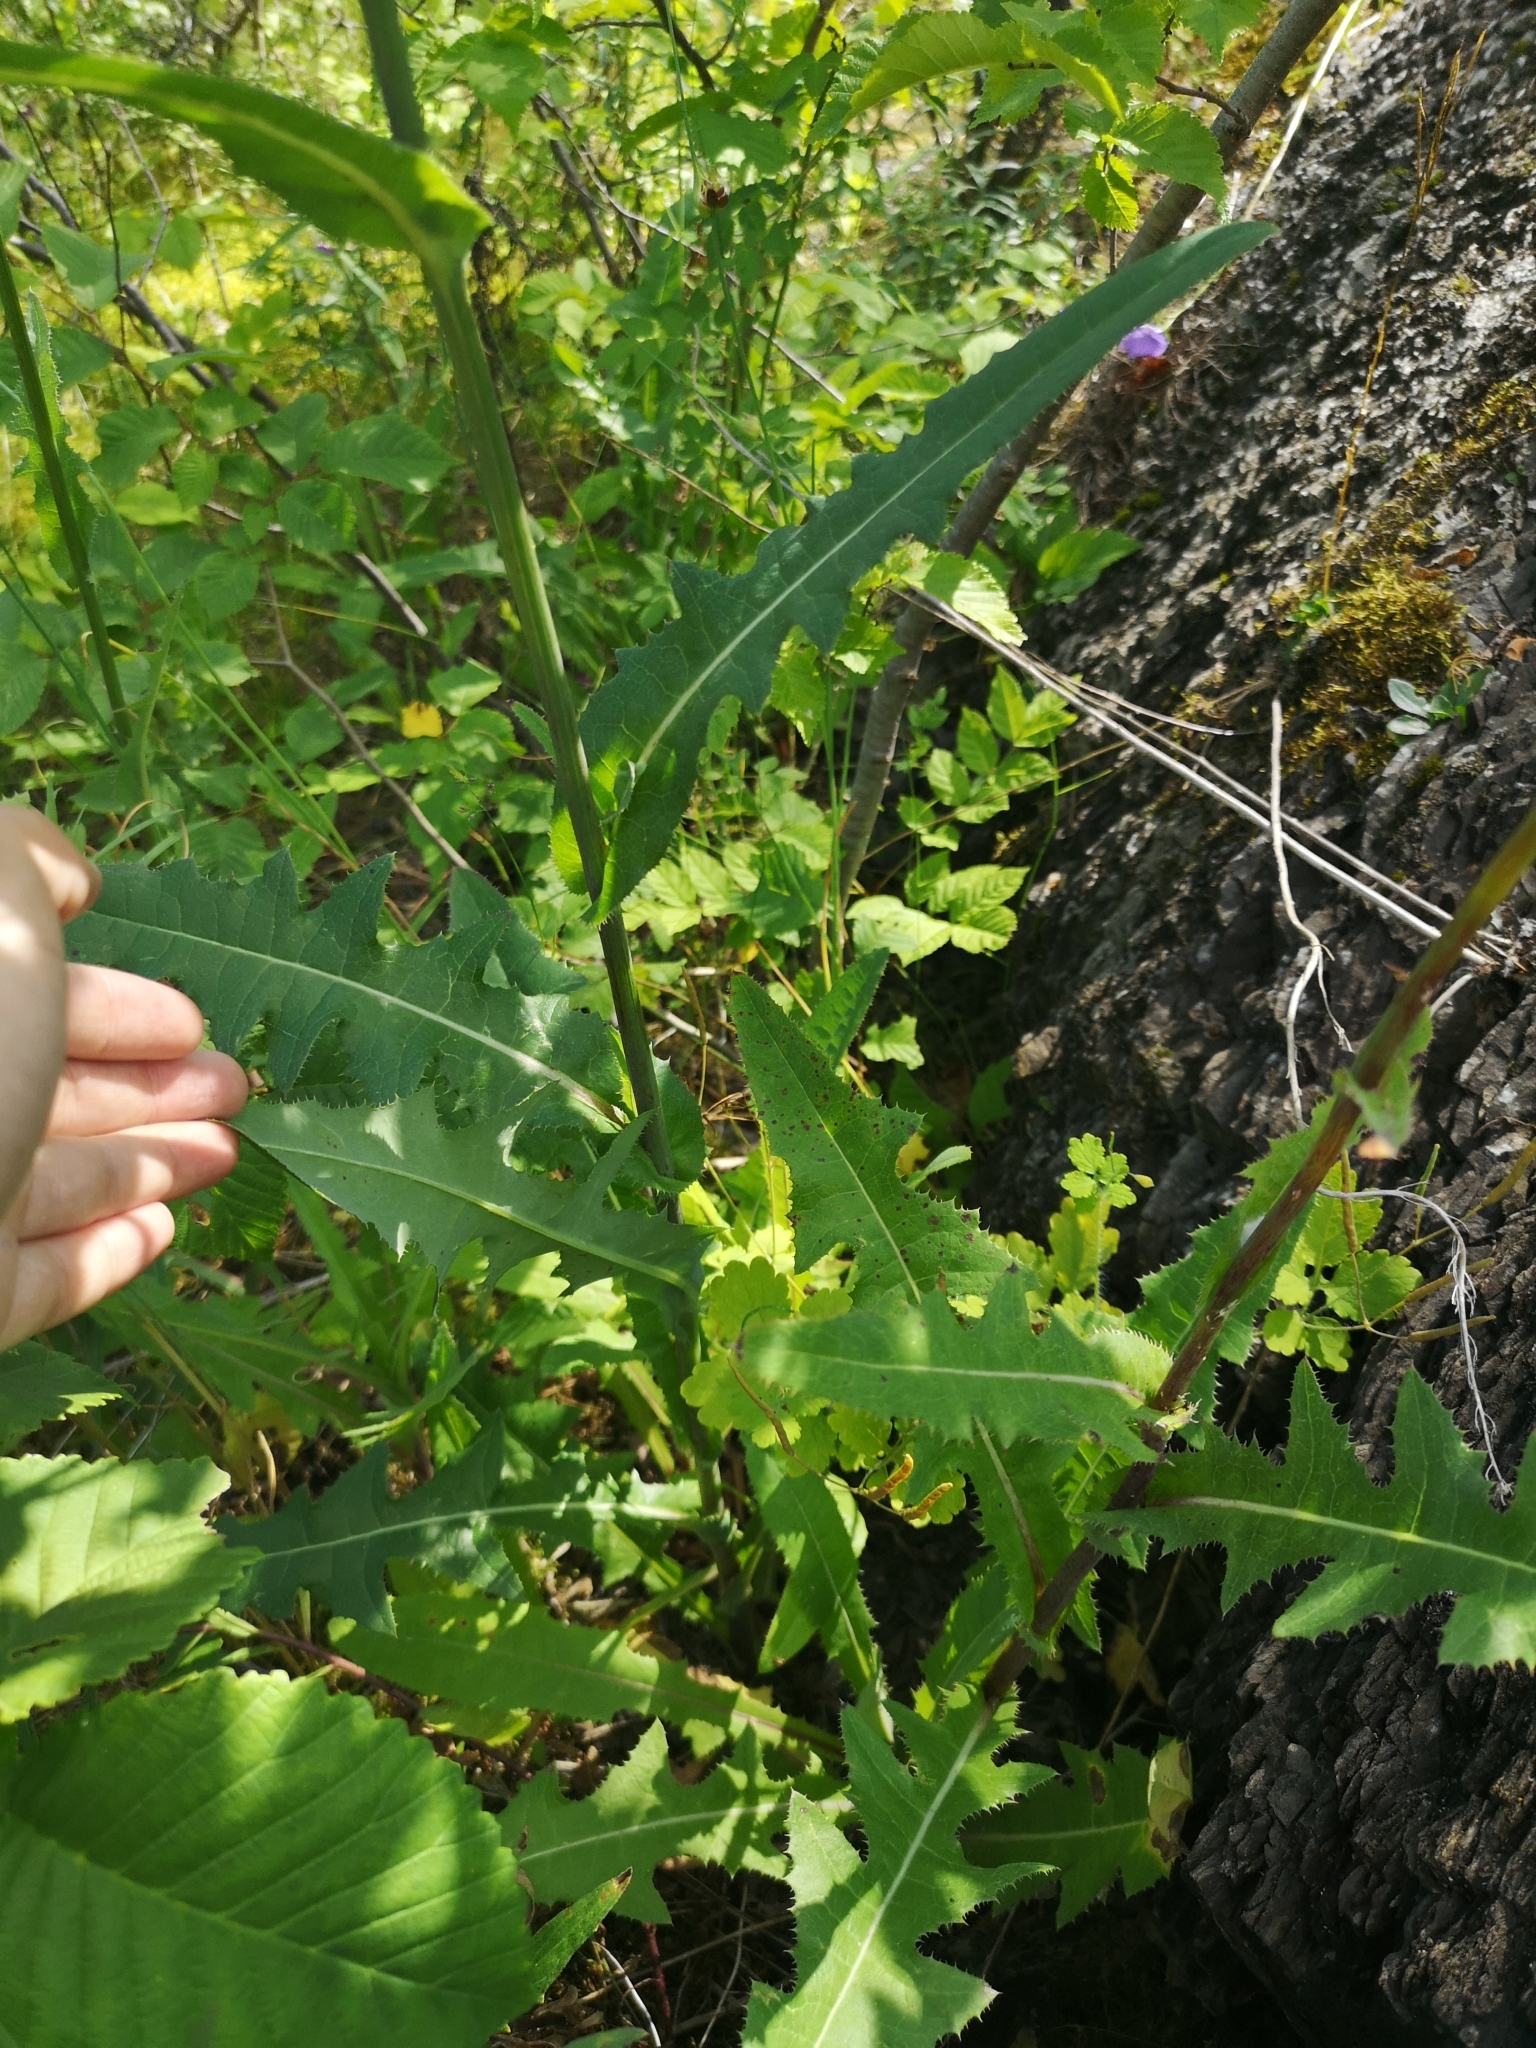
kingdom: Plantae
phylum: Tracheophyta
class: Magnoliopsida
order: Asterales
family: Asteraceae
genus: Sonchus
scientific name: Sonchus arvensis
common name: Perennial sow-thistle
